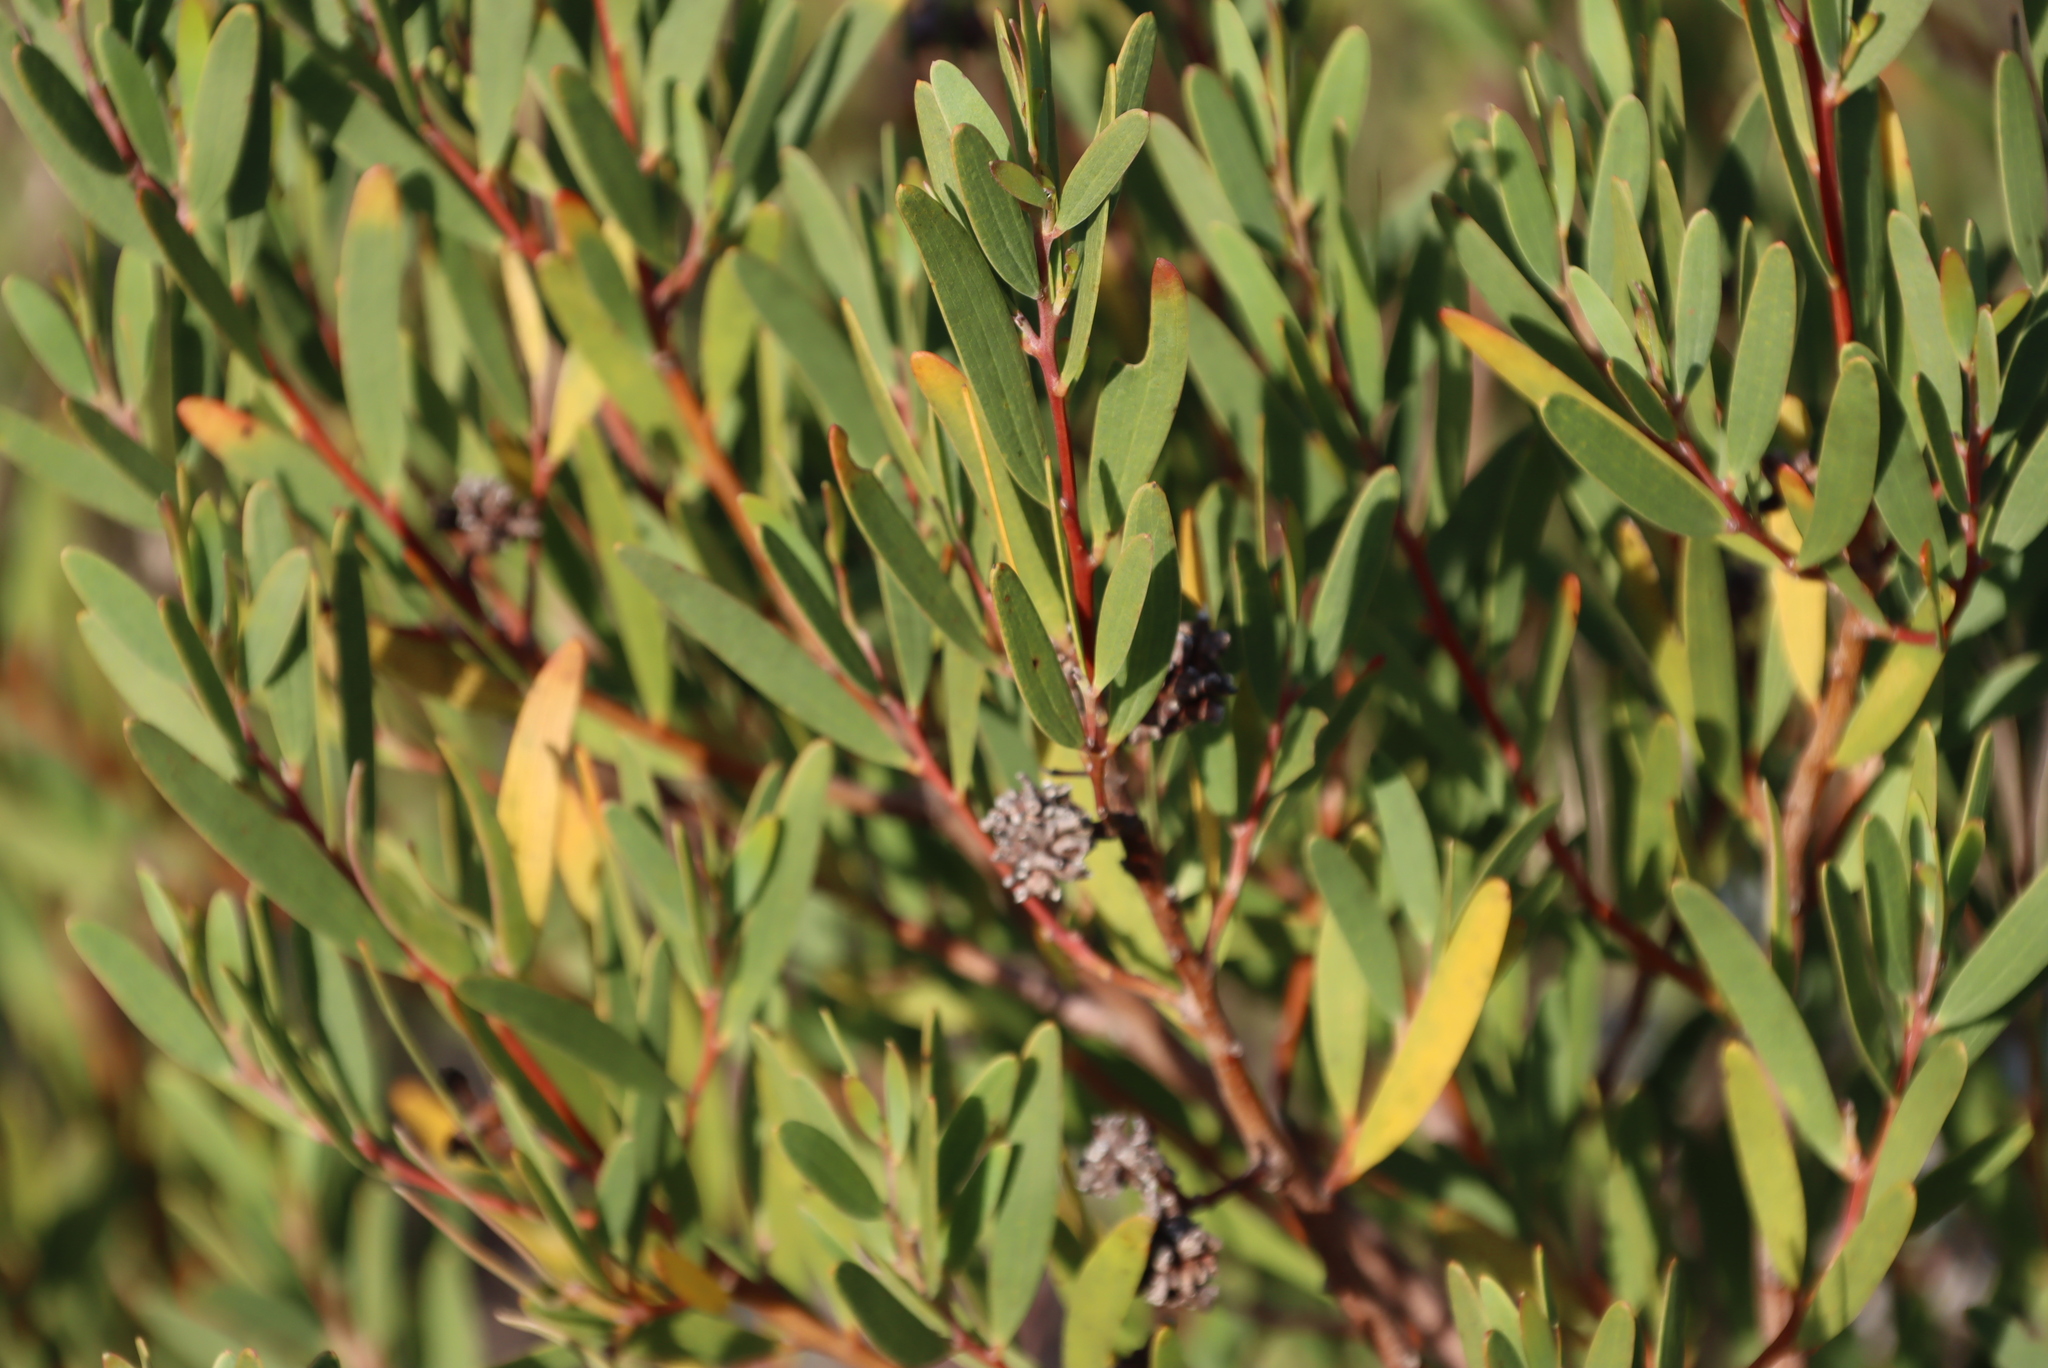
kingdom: Animalia
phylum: Arthropoda
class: Insecta
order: Diptera
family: Cecidomyiidae
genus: Dasineura
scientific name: Dasineura dielsi
